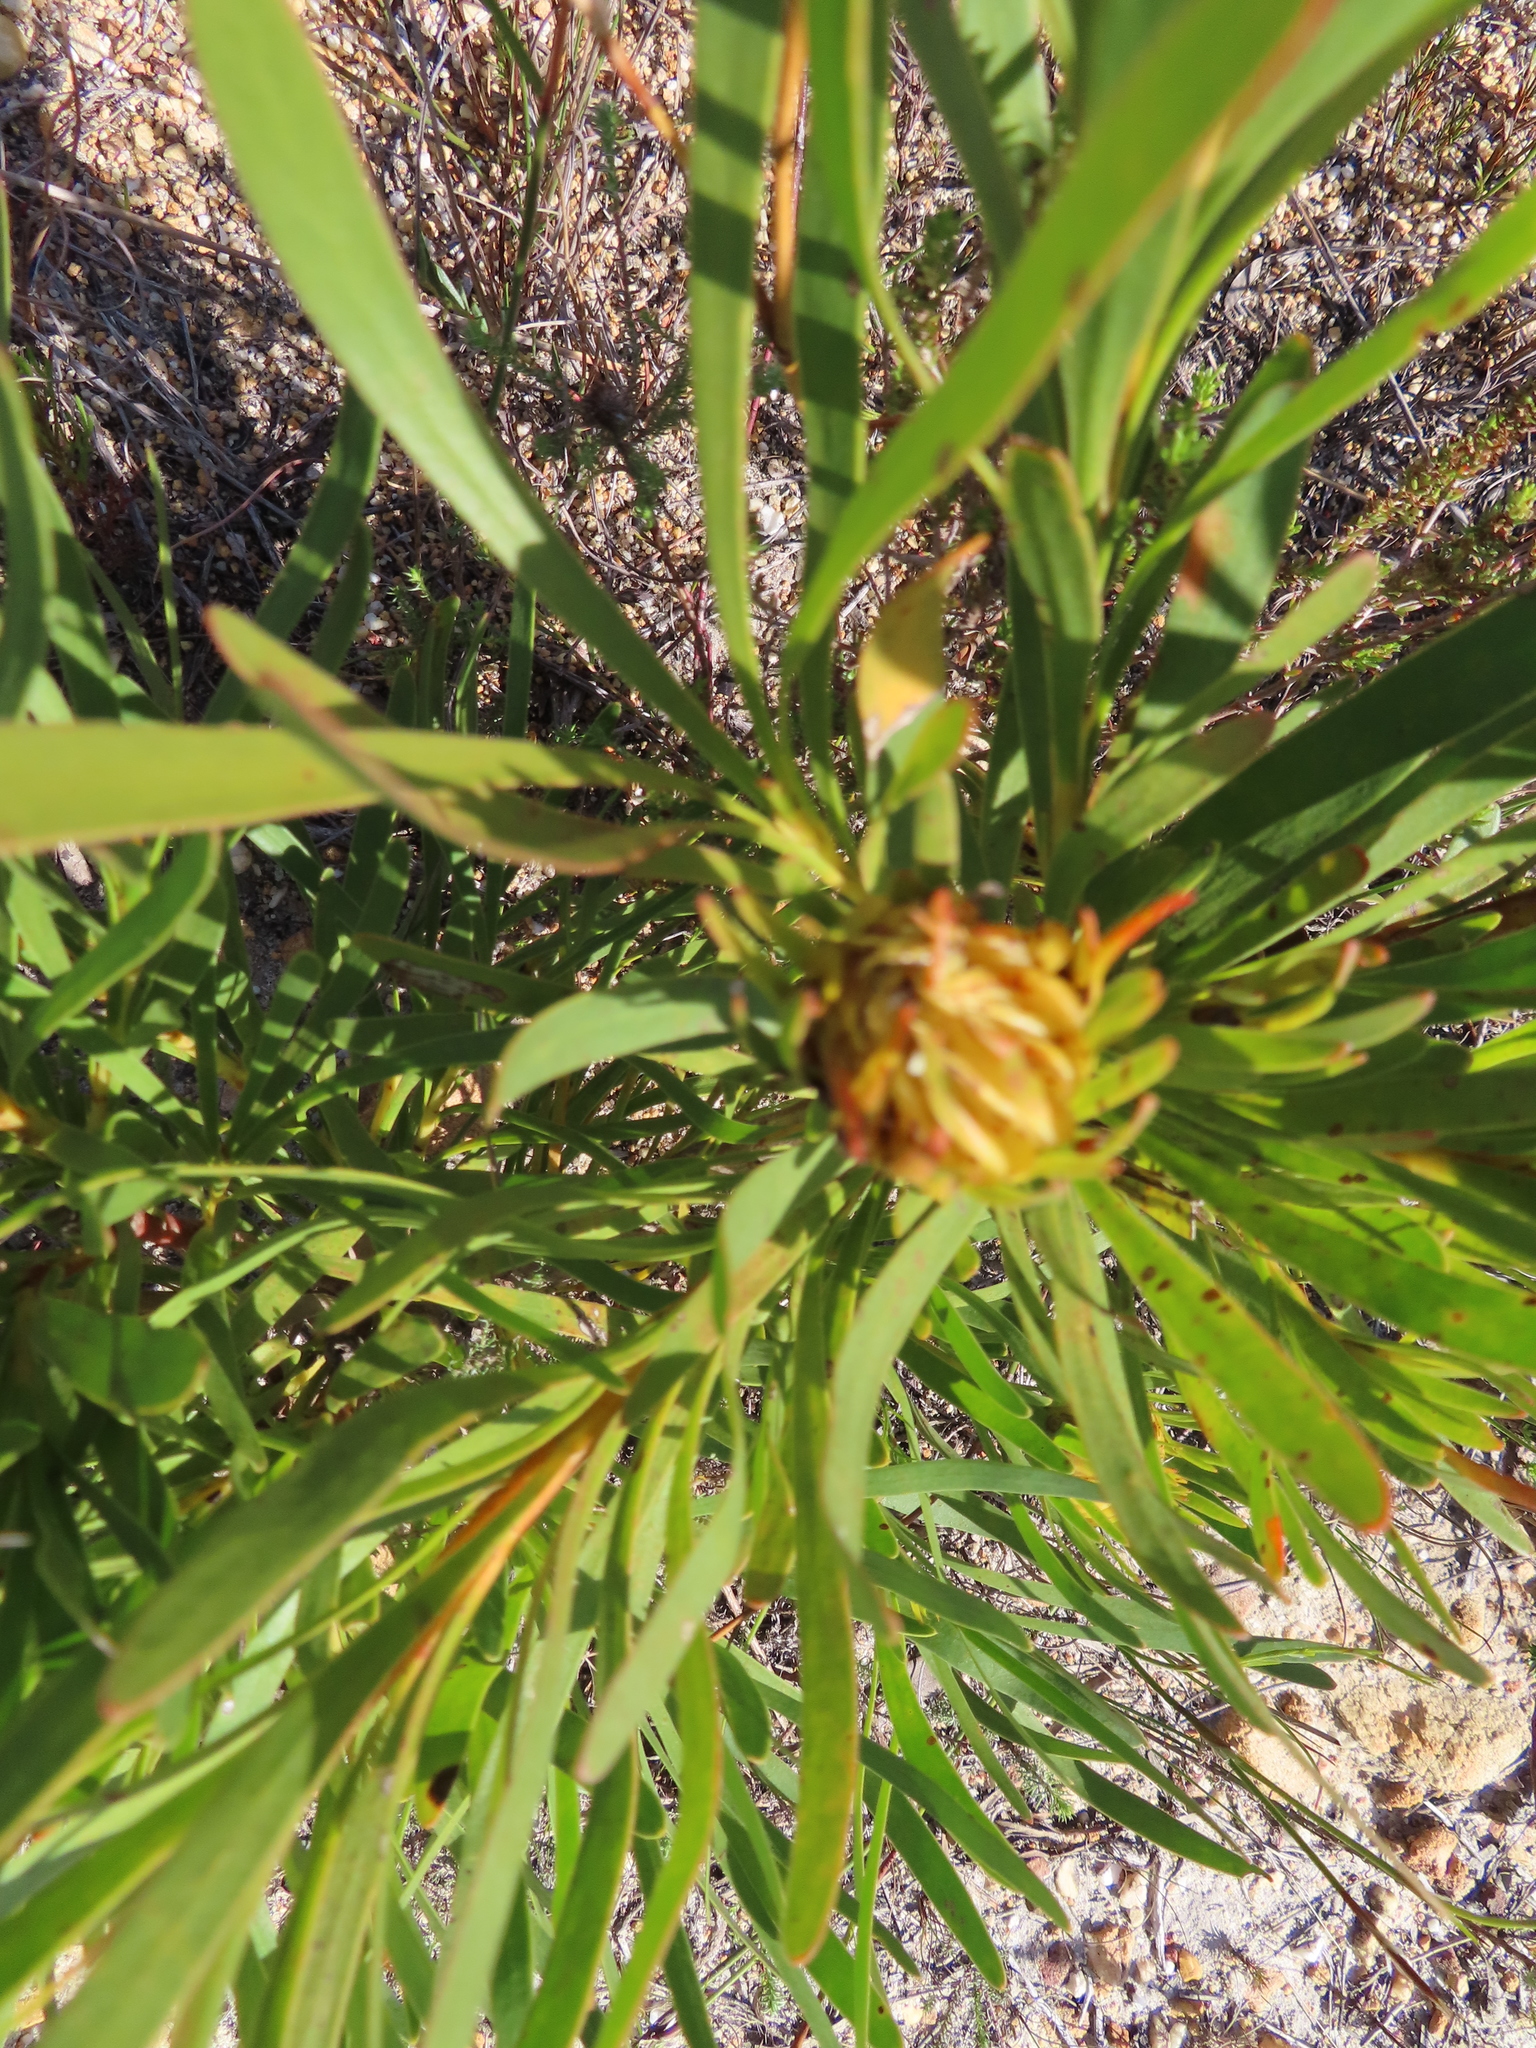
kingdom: Plantae
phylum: Tracheophyta
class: Magnoliopsida
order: Proteales
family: Proteaceae
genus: Aulax
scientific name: Aulax umbellata
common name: Broad-leaf featherbush
